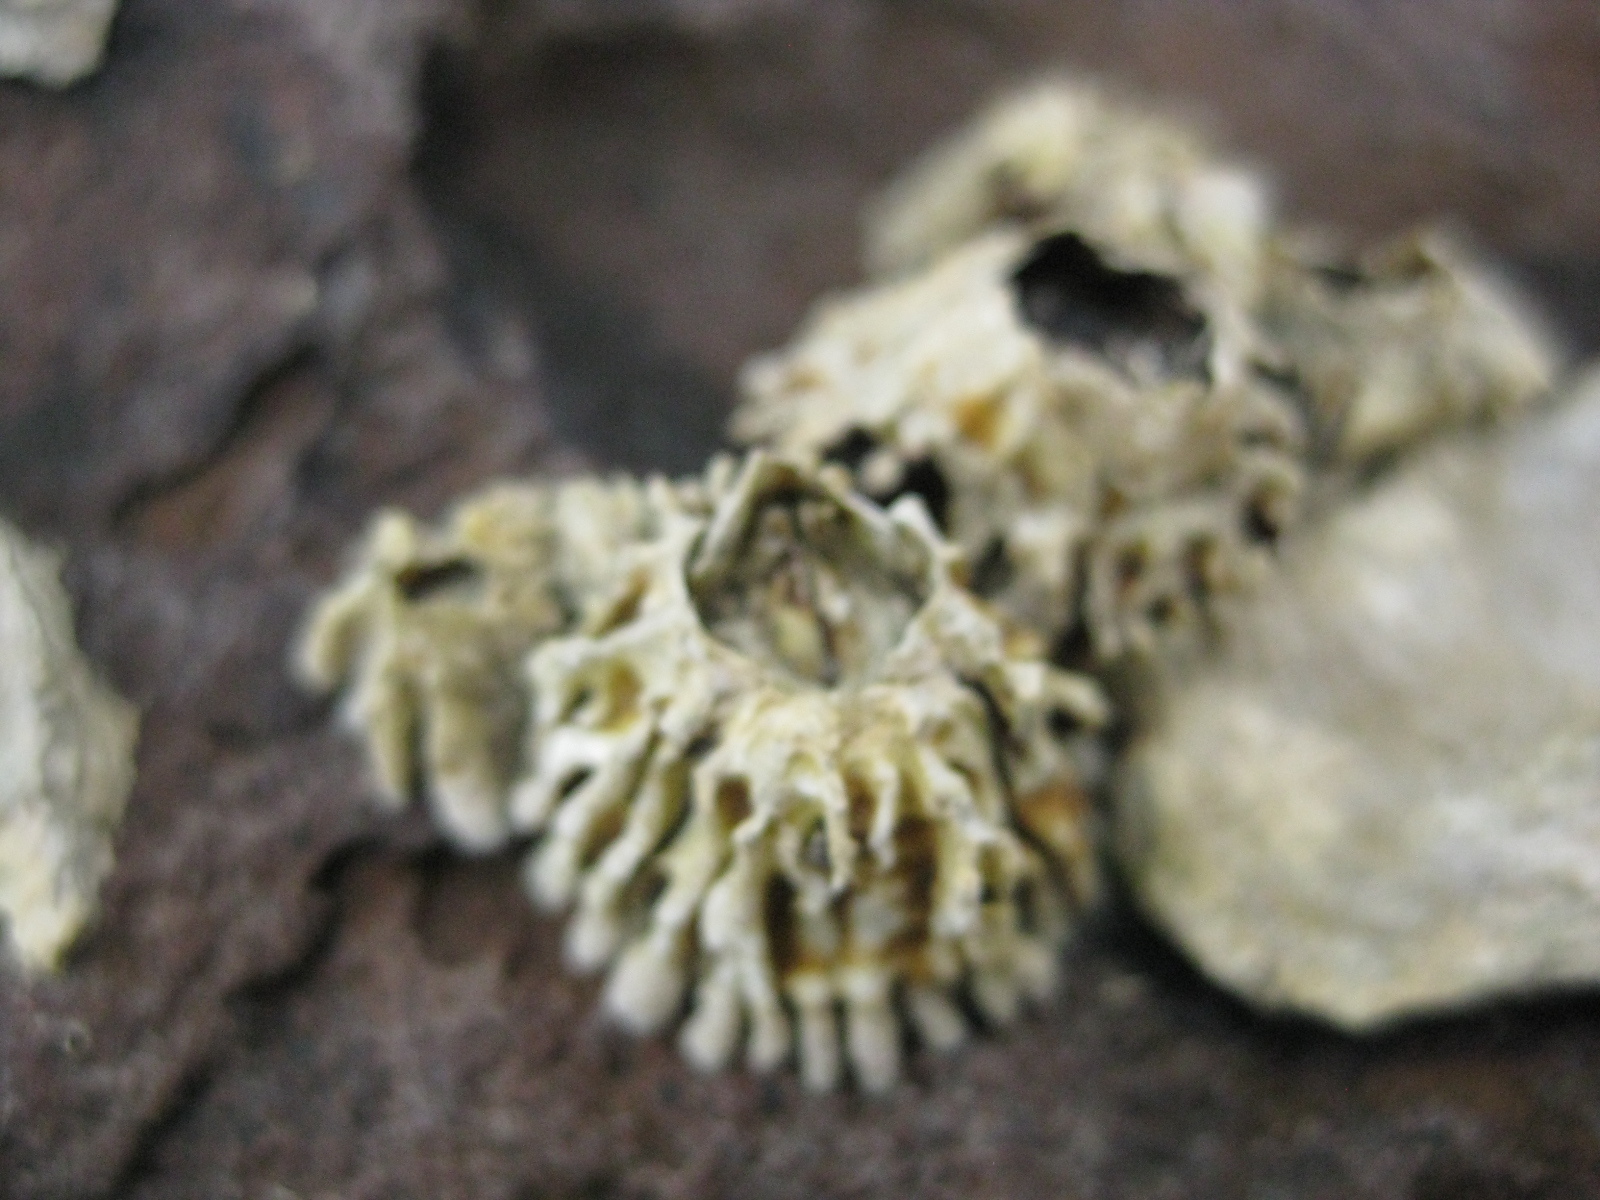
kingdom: Animalia
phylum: Arthropoda
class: Maxillopoda
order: Sessilia
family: Tetraclitidae
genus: Epopella
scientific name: Epopella plicata
